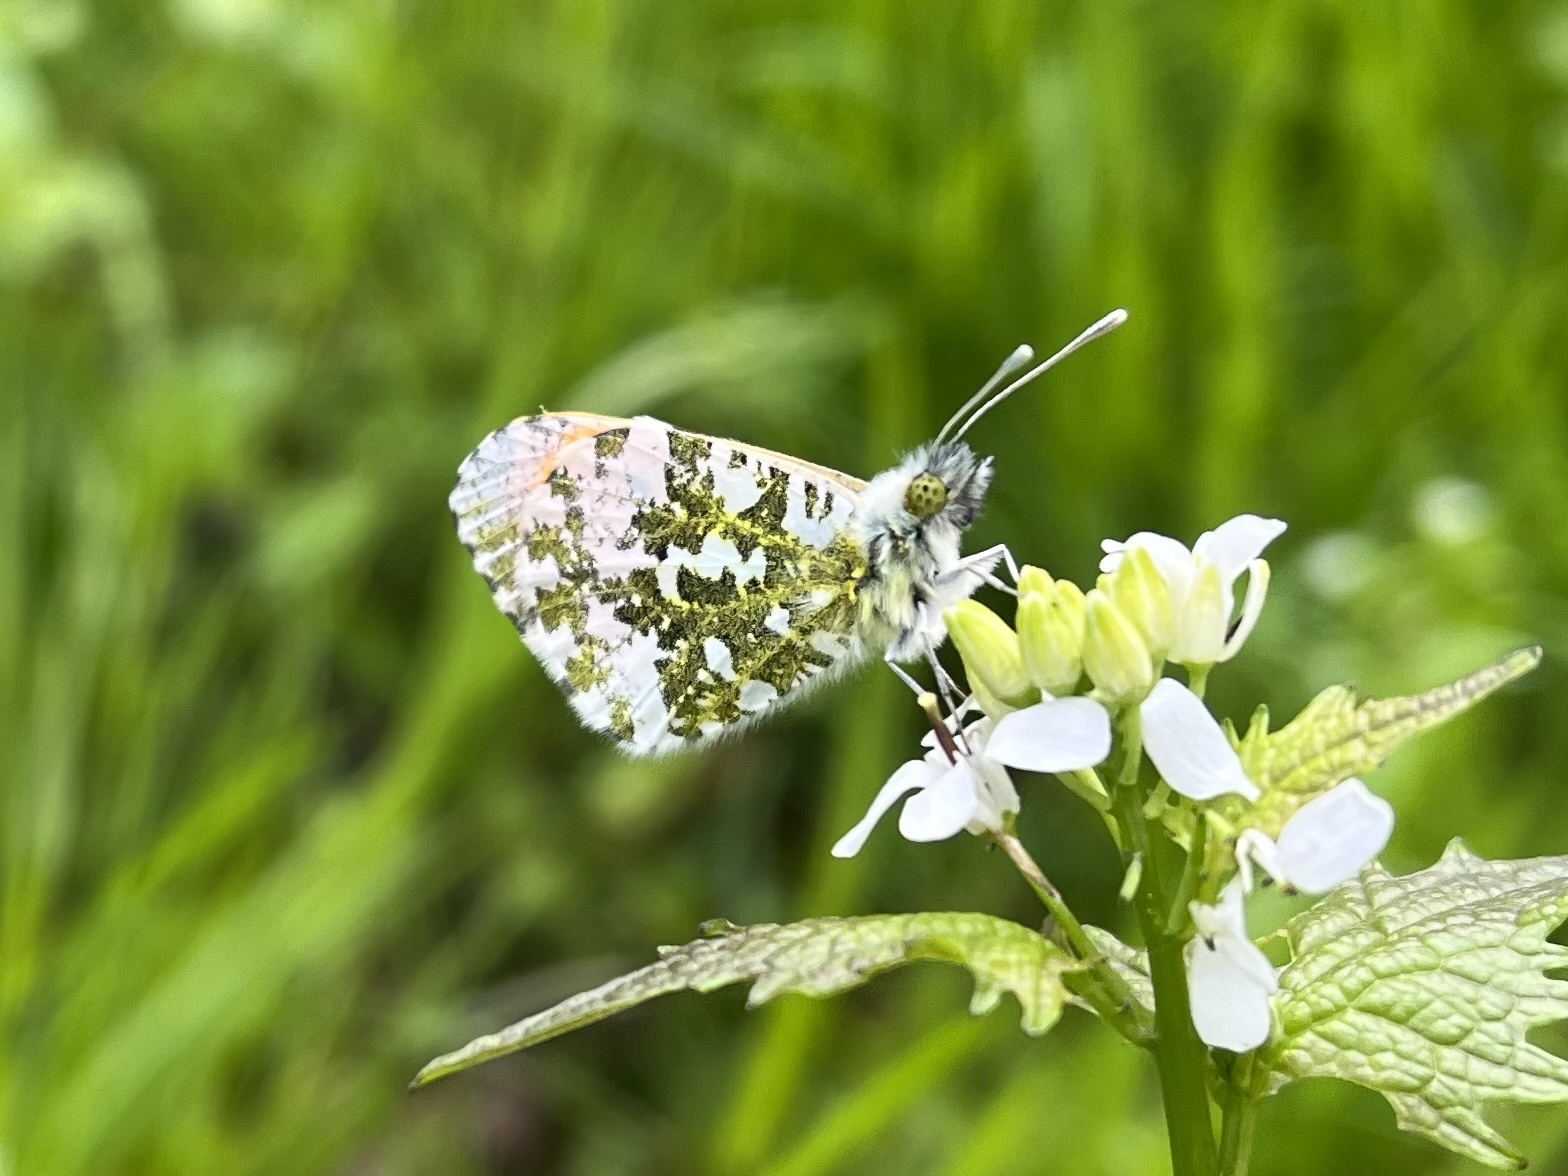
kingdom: Animalia
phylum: Arthropoda
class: Insecta
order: Lepidoptera
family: Pieridae
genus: Anthocharis
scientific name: Anthocharis cardamines
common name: Orange-tip
